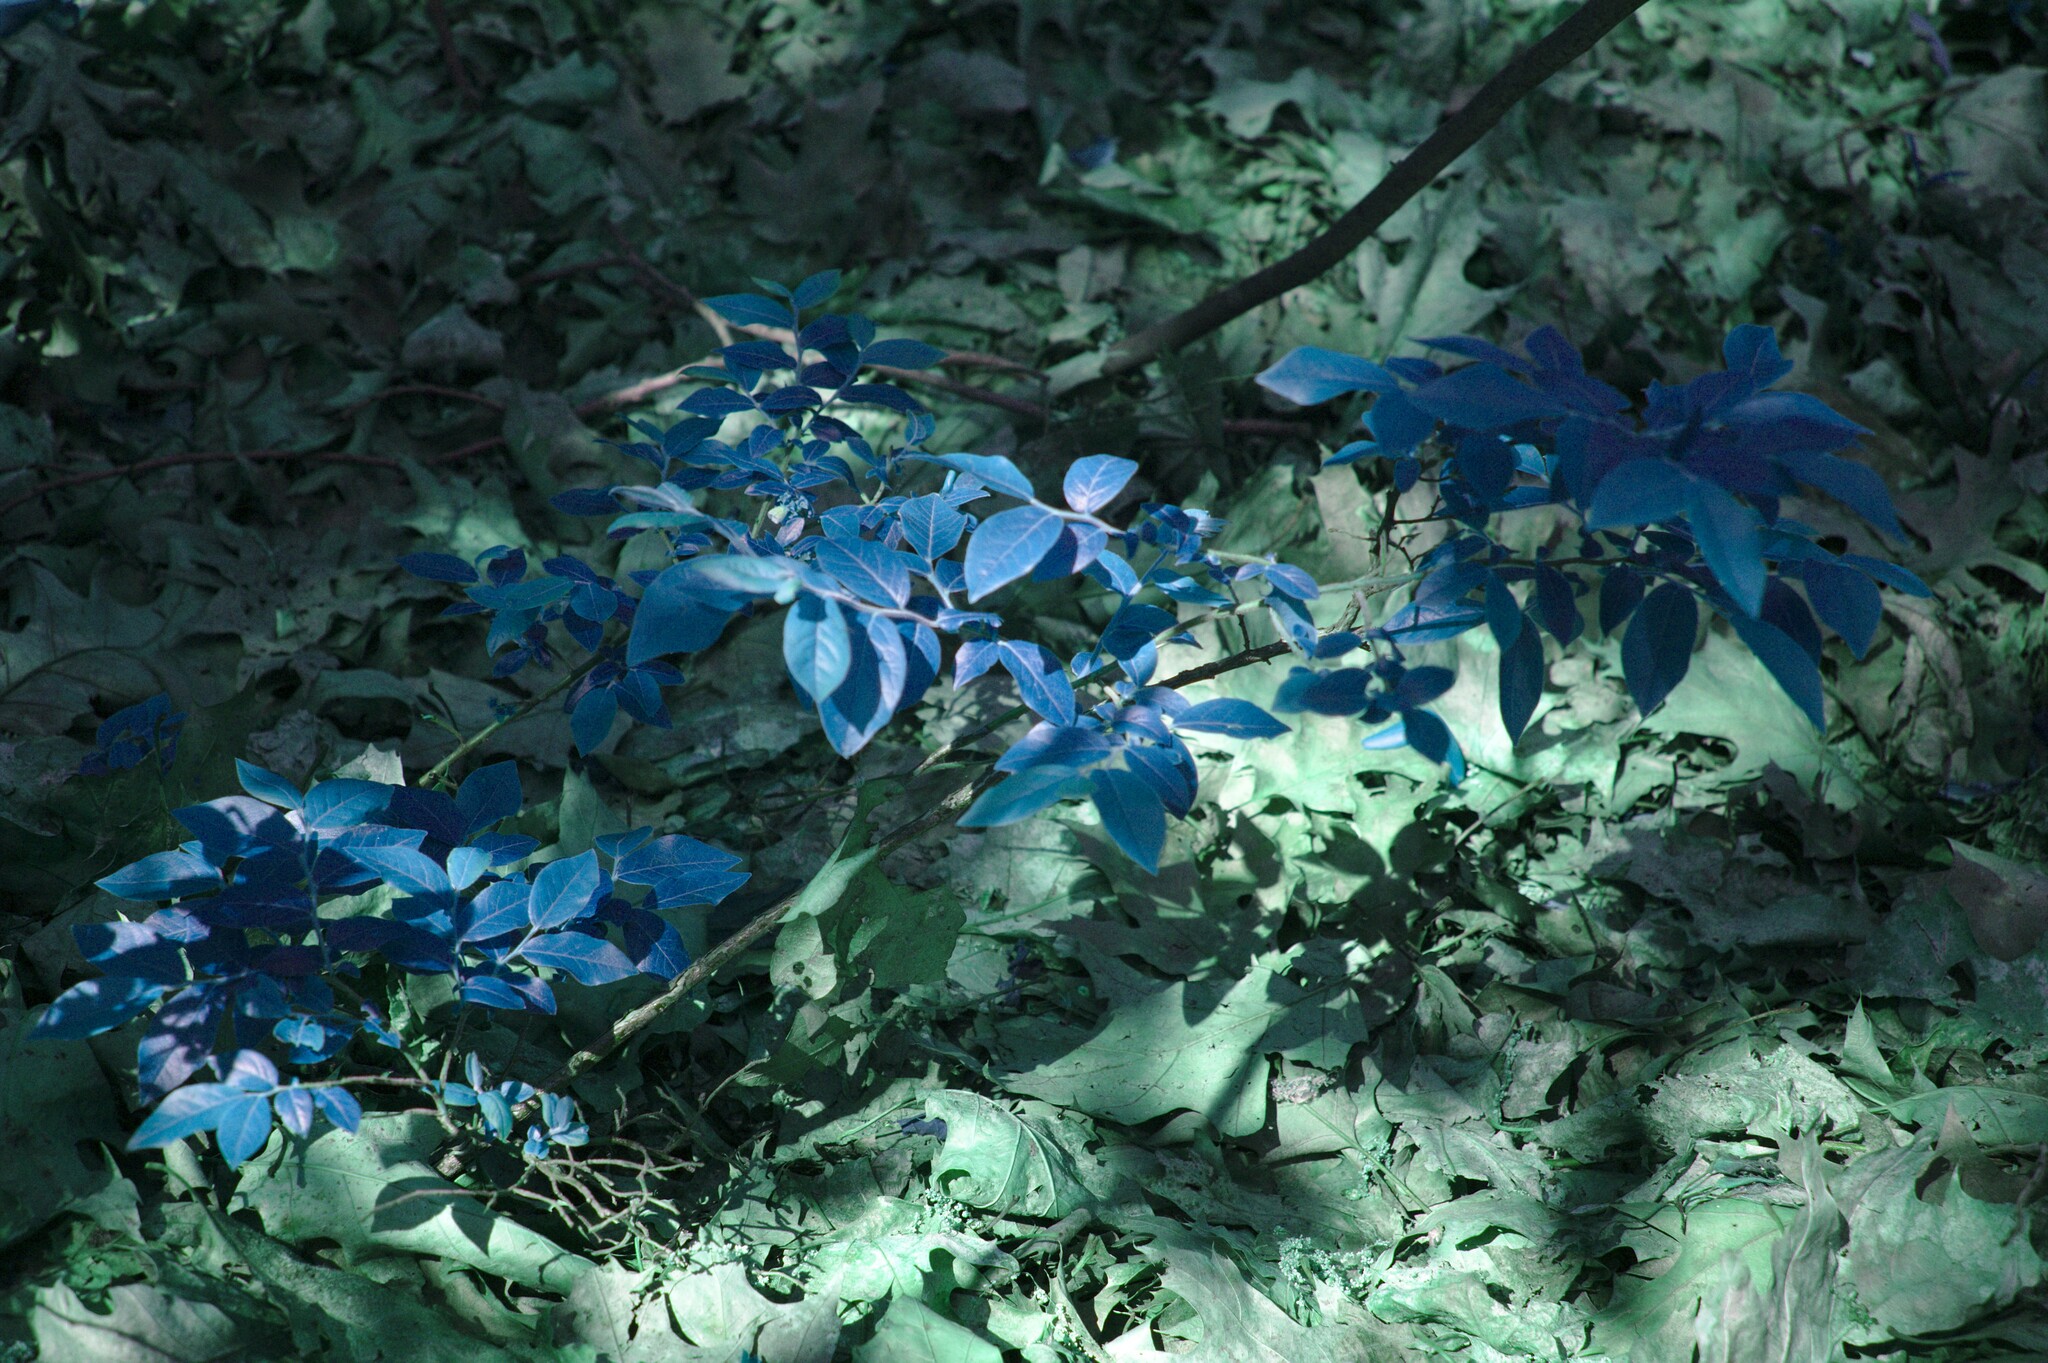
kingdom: Plantae
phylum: Tracheophyta
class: Magnoliopsida
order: Ericales
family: Ericaceae
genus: Vaccinium
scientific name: Vaccinium myrtilloides
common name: Canada blueberry
